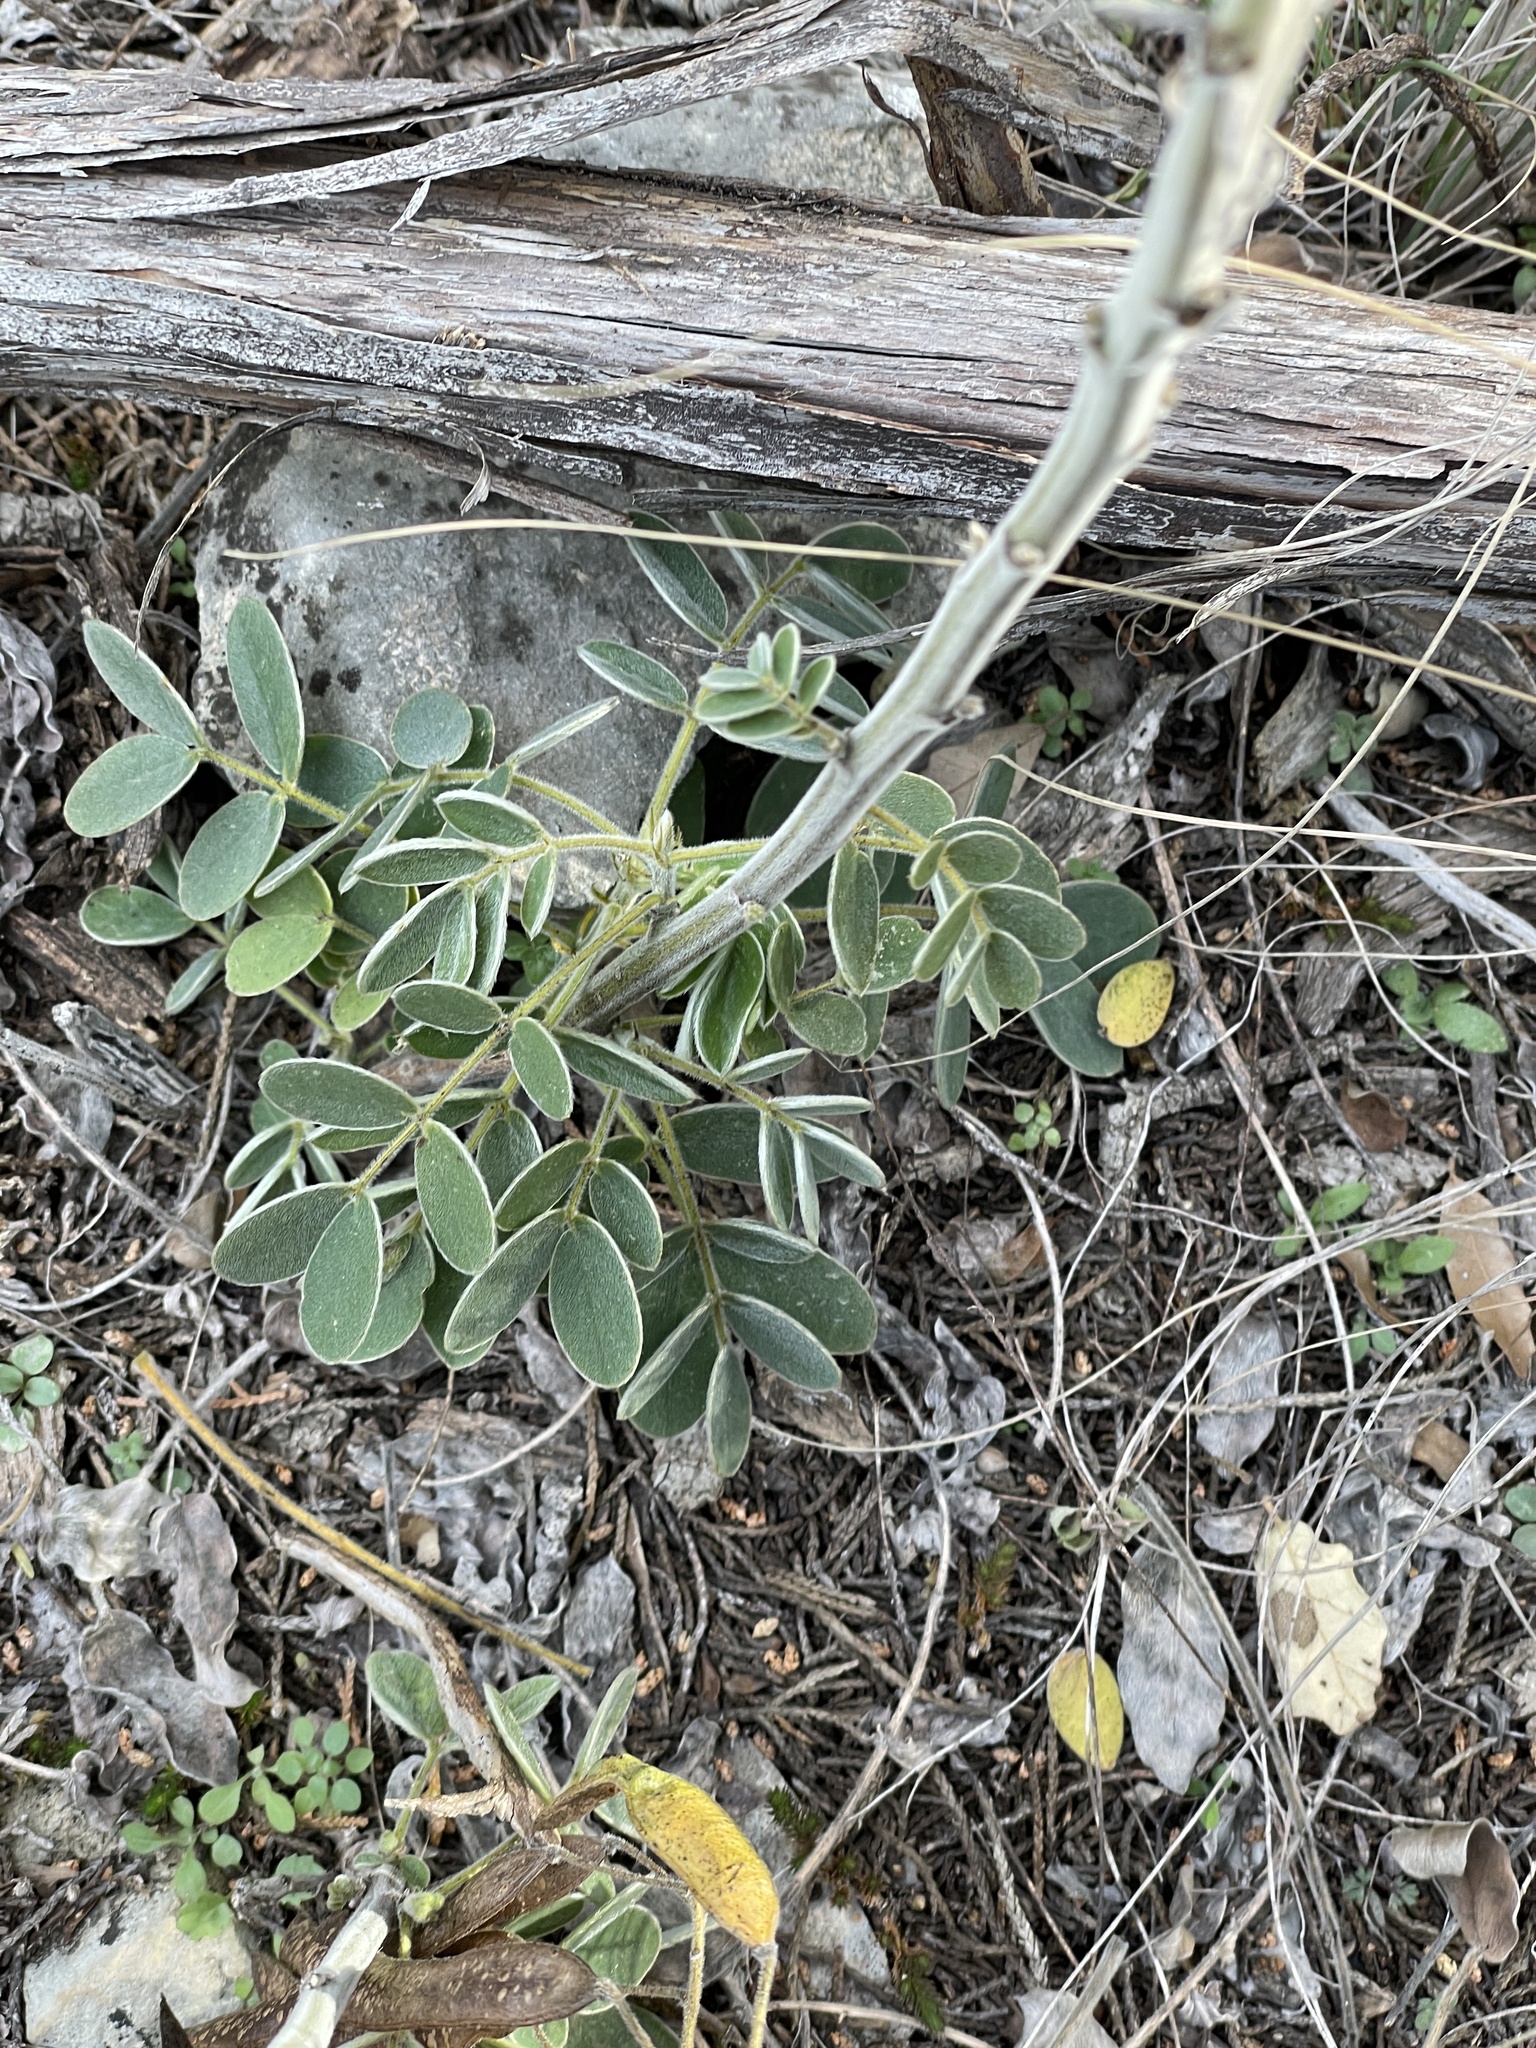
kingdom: Plantae
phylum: Tracheophyta
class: Magnoliopsida
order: Fabales
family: Fabaceae
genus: Senna
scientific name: Senna lindheimeriana
